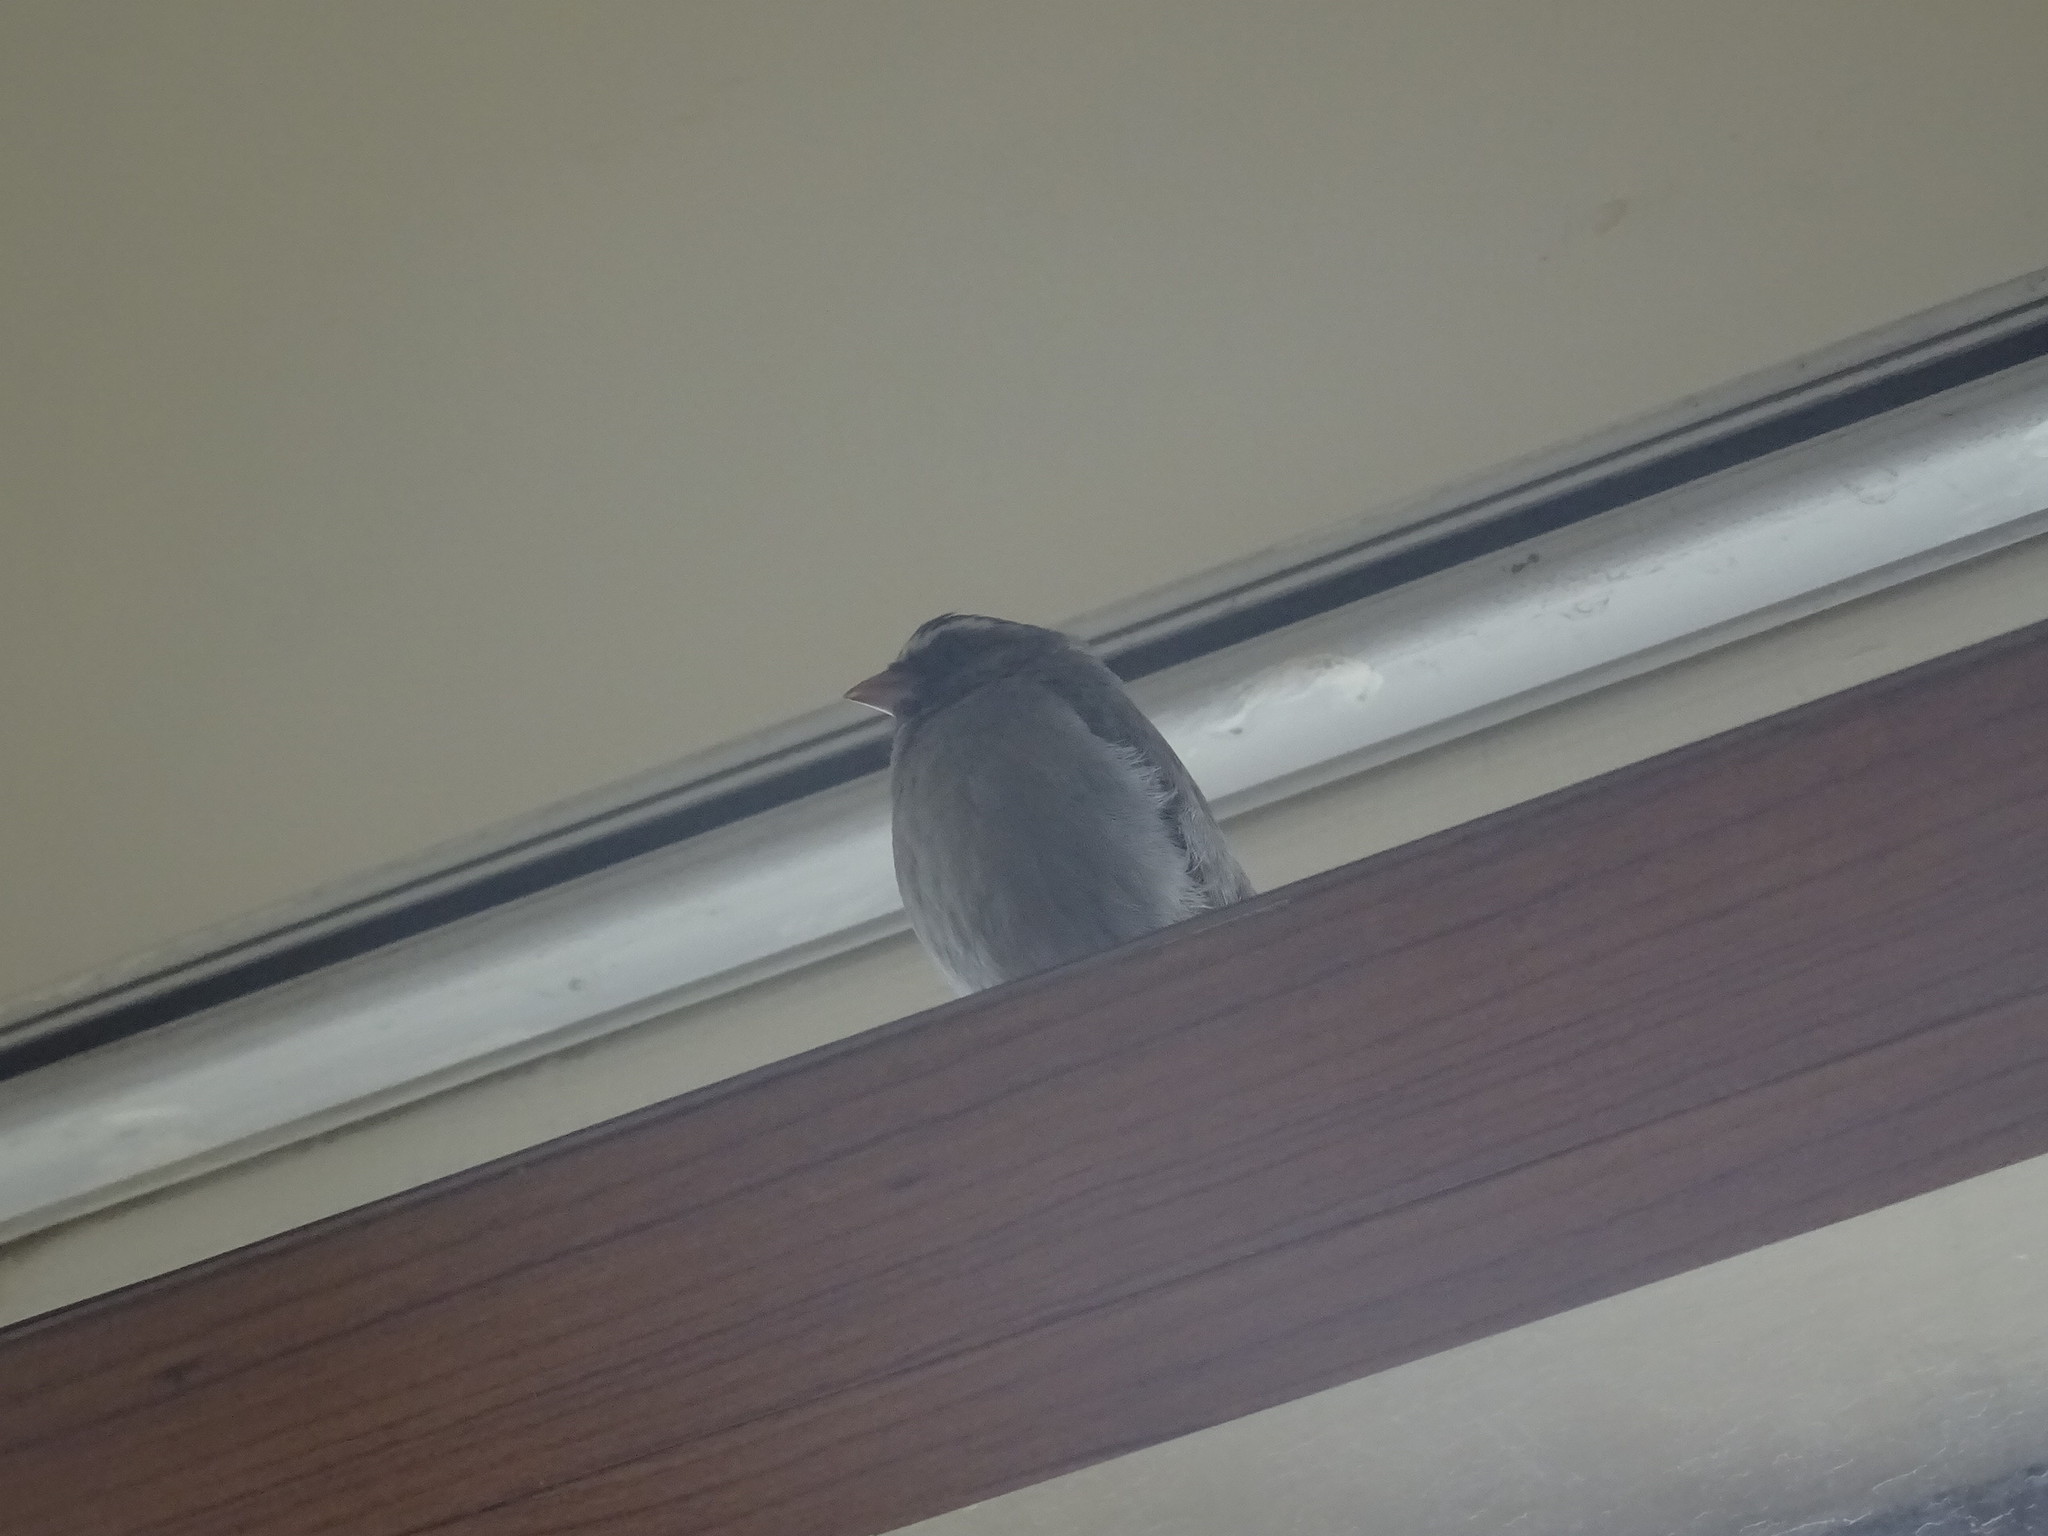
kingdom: Animalia
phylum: Chordata
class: Aves
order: Passeriformes
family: Fringillidae
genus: Crithagra
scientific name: Crithagra tristriata
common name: Brown-rumped seedeater
